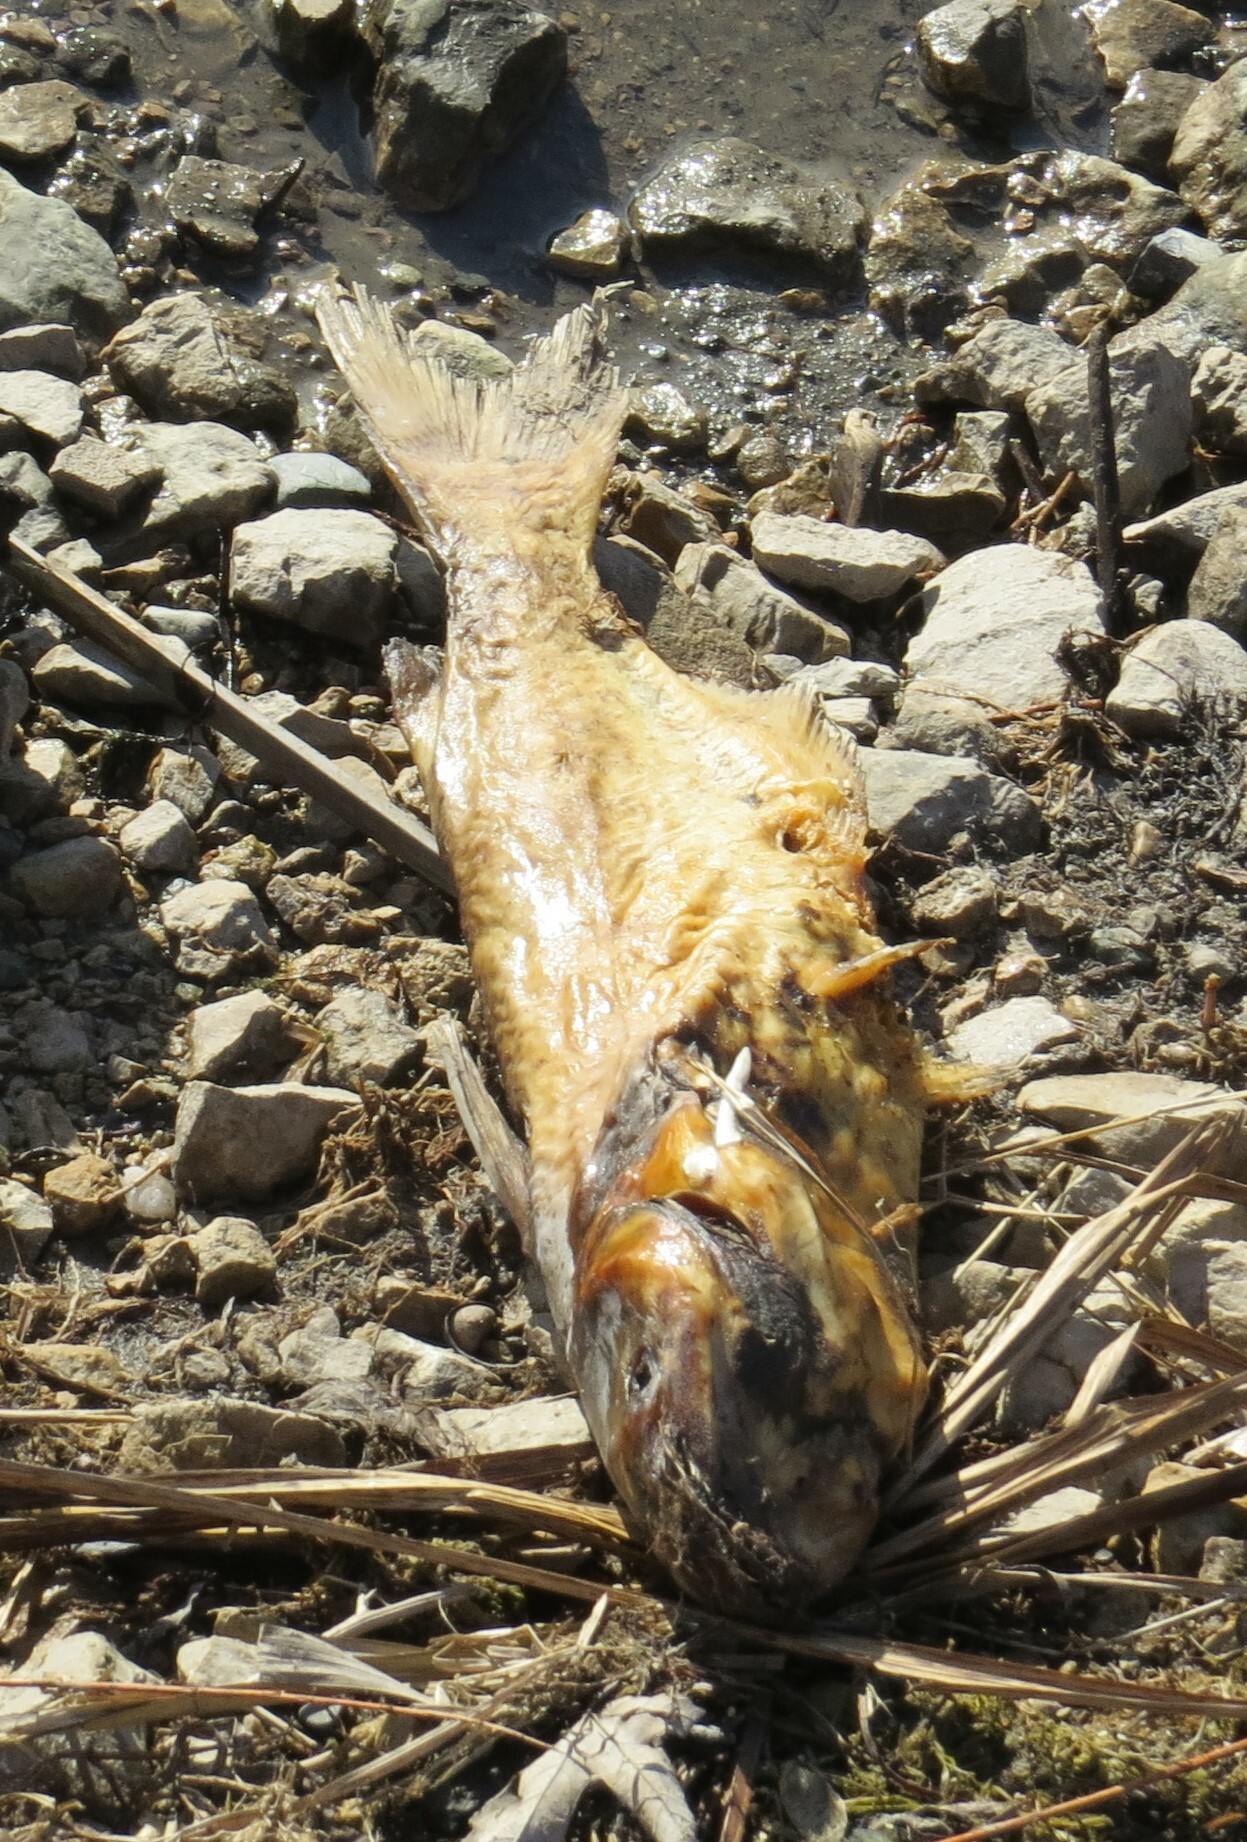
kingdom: Animalia
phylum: Chordata
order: Siluriformes
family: Ictaluridae
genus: Ictalurus
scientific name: Ictalurus punctatus
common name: Channel catfish
